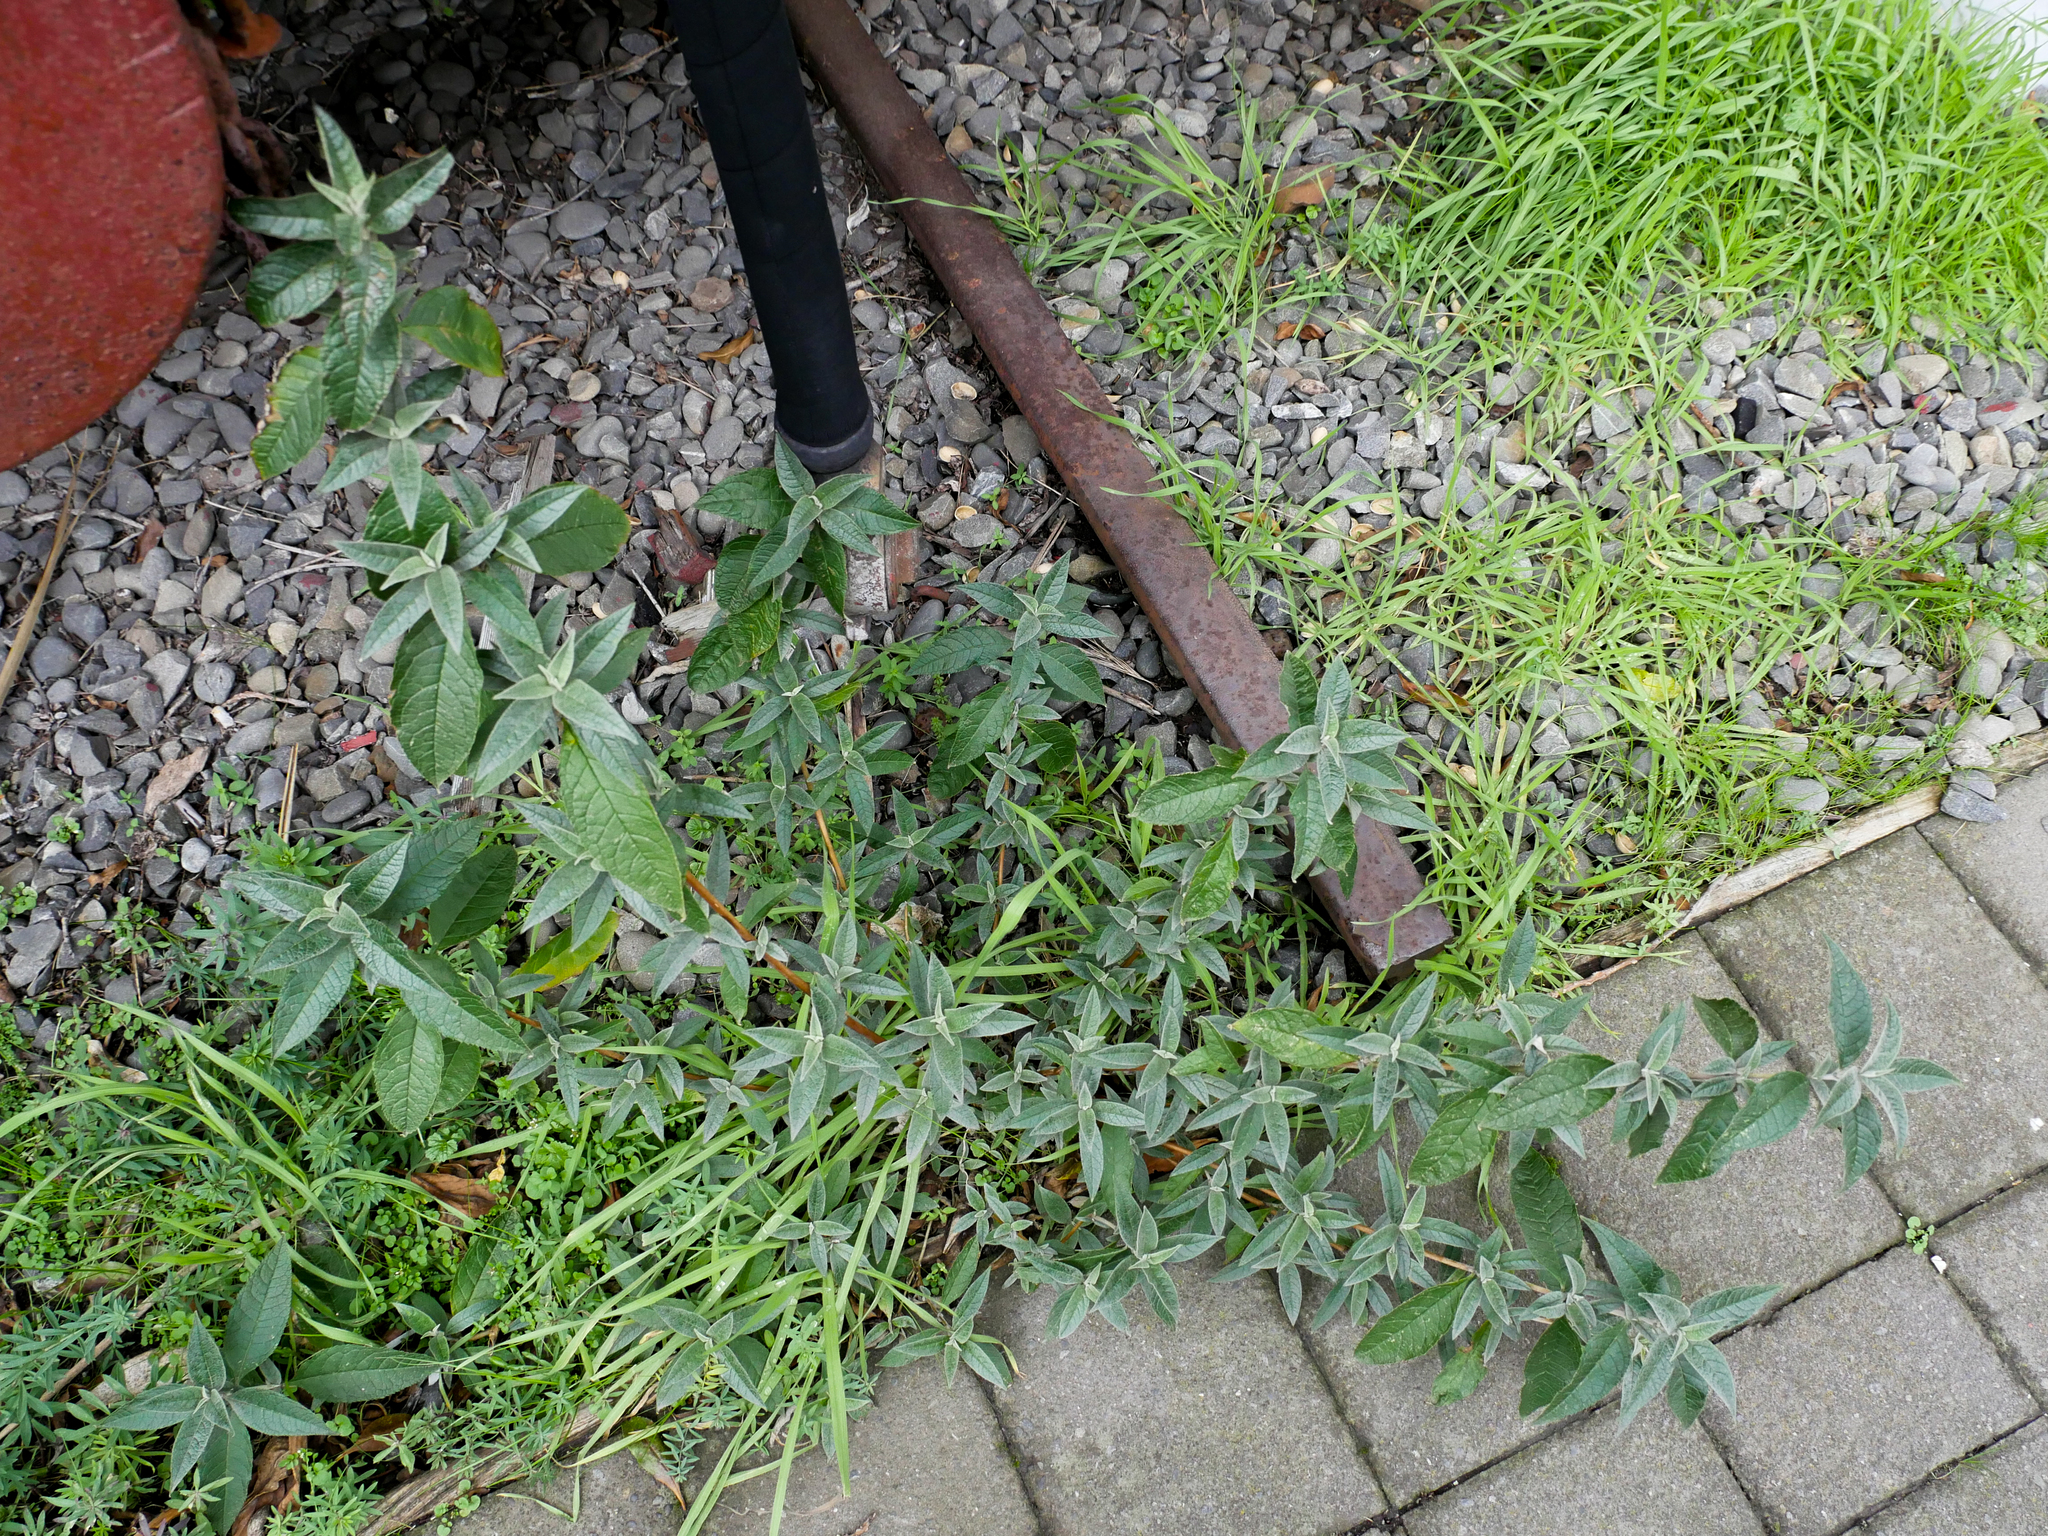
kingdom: Plantae
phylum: Tracheophyta
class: Magnoliopsida
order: Lamiales
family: Scrophulariaceae
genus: Buddleja
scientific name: Buddleja davidii
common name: Butterfly-bush
